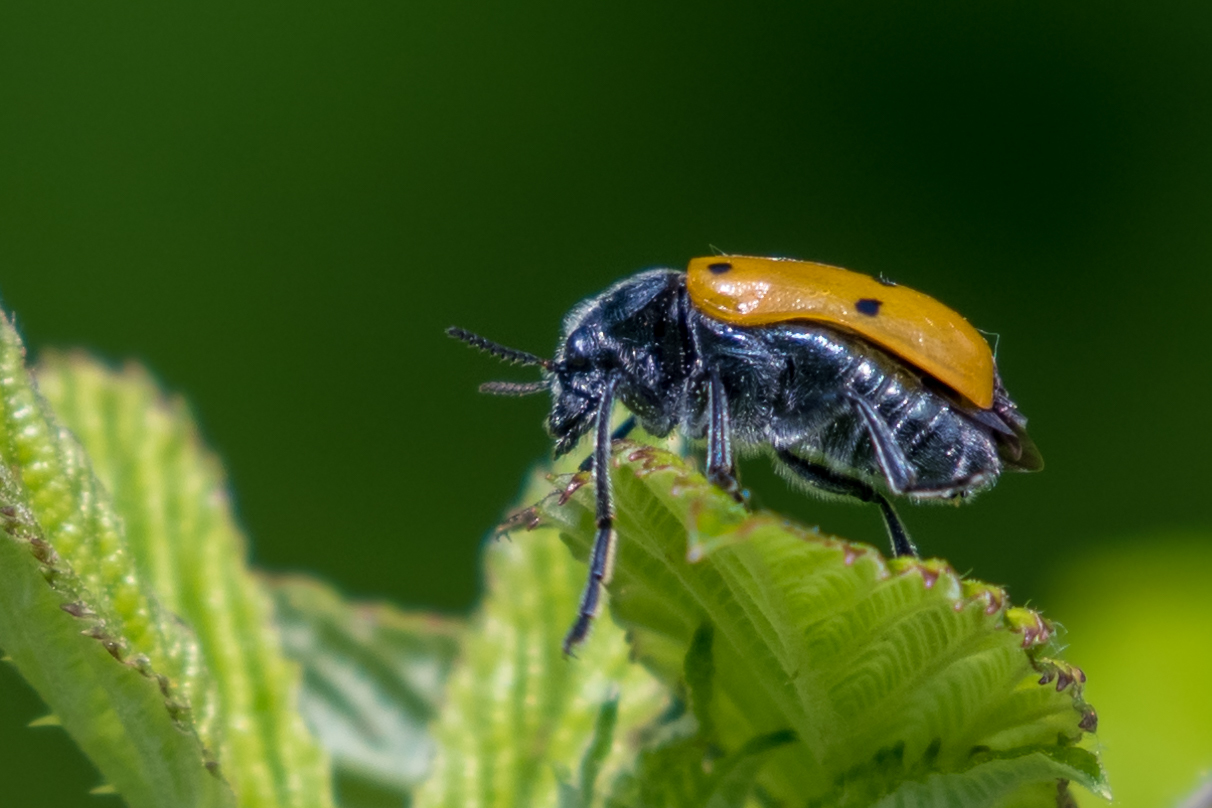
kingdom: Animalia
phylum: Arthropoda
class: Insecta
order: Coleoptera
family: Chrysomelidae
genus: Lachnaia
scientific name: Lachnaia italica
